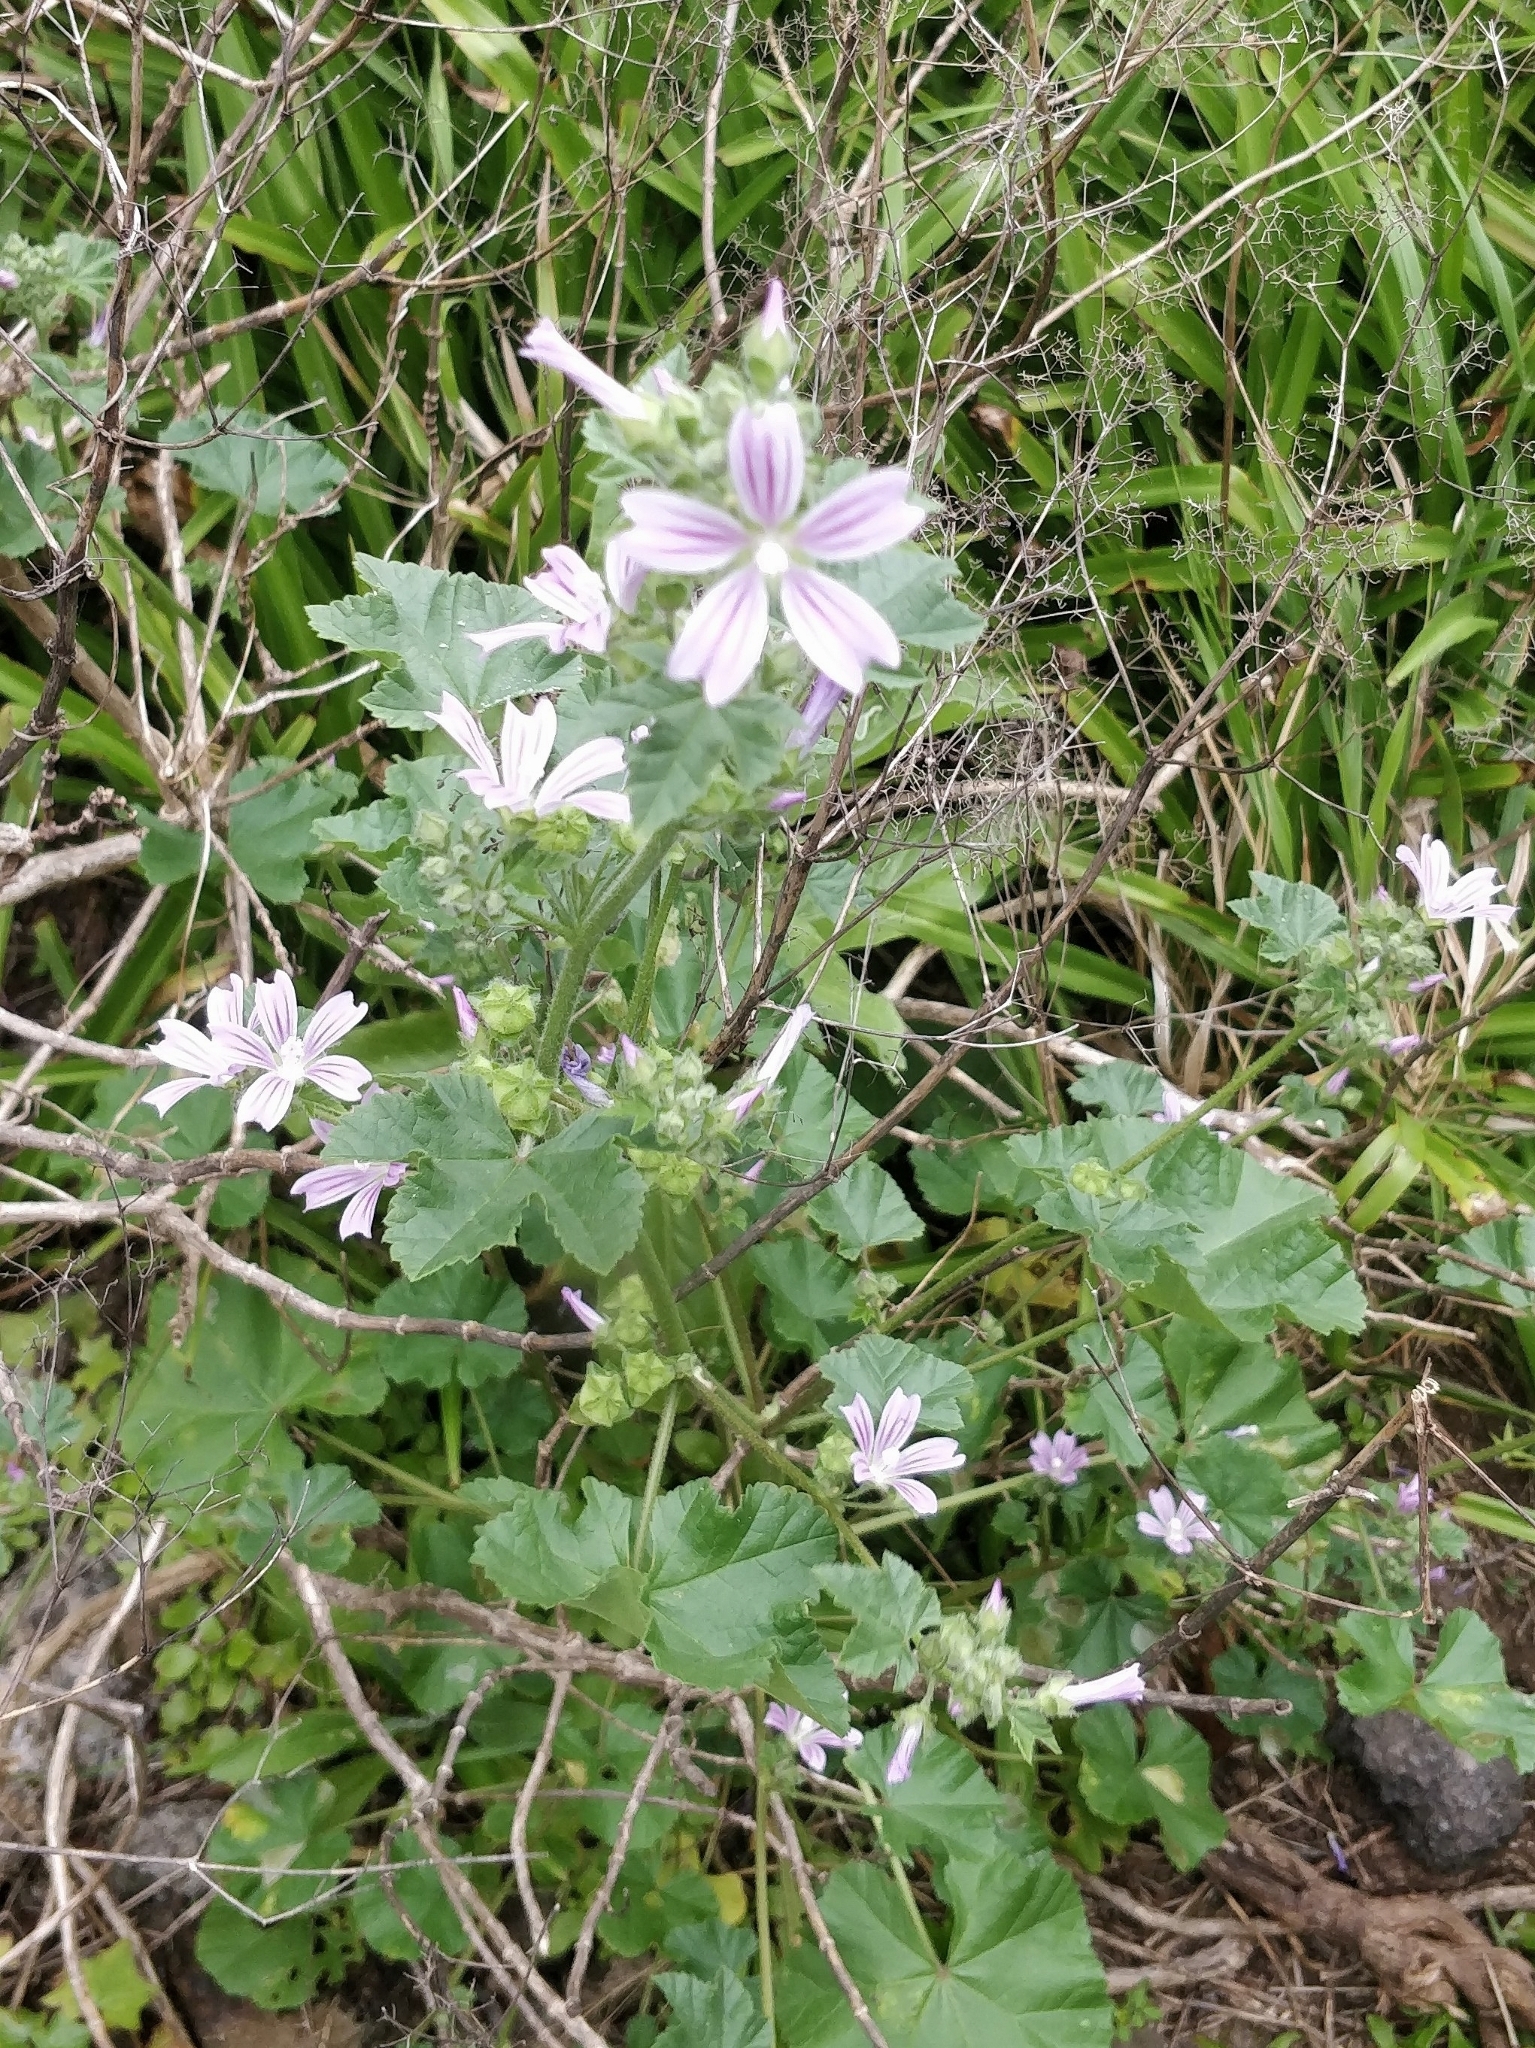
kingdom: Plantae
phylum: Tracheophyta
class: Magnoliopsida
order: Malvales
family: Malvaceae
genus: Malva
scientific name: Malva multiflora
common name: Cheeseweed
